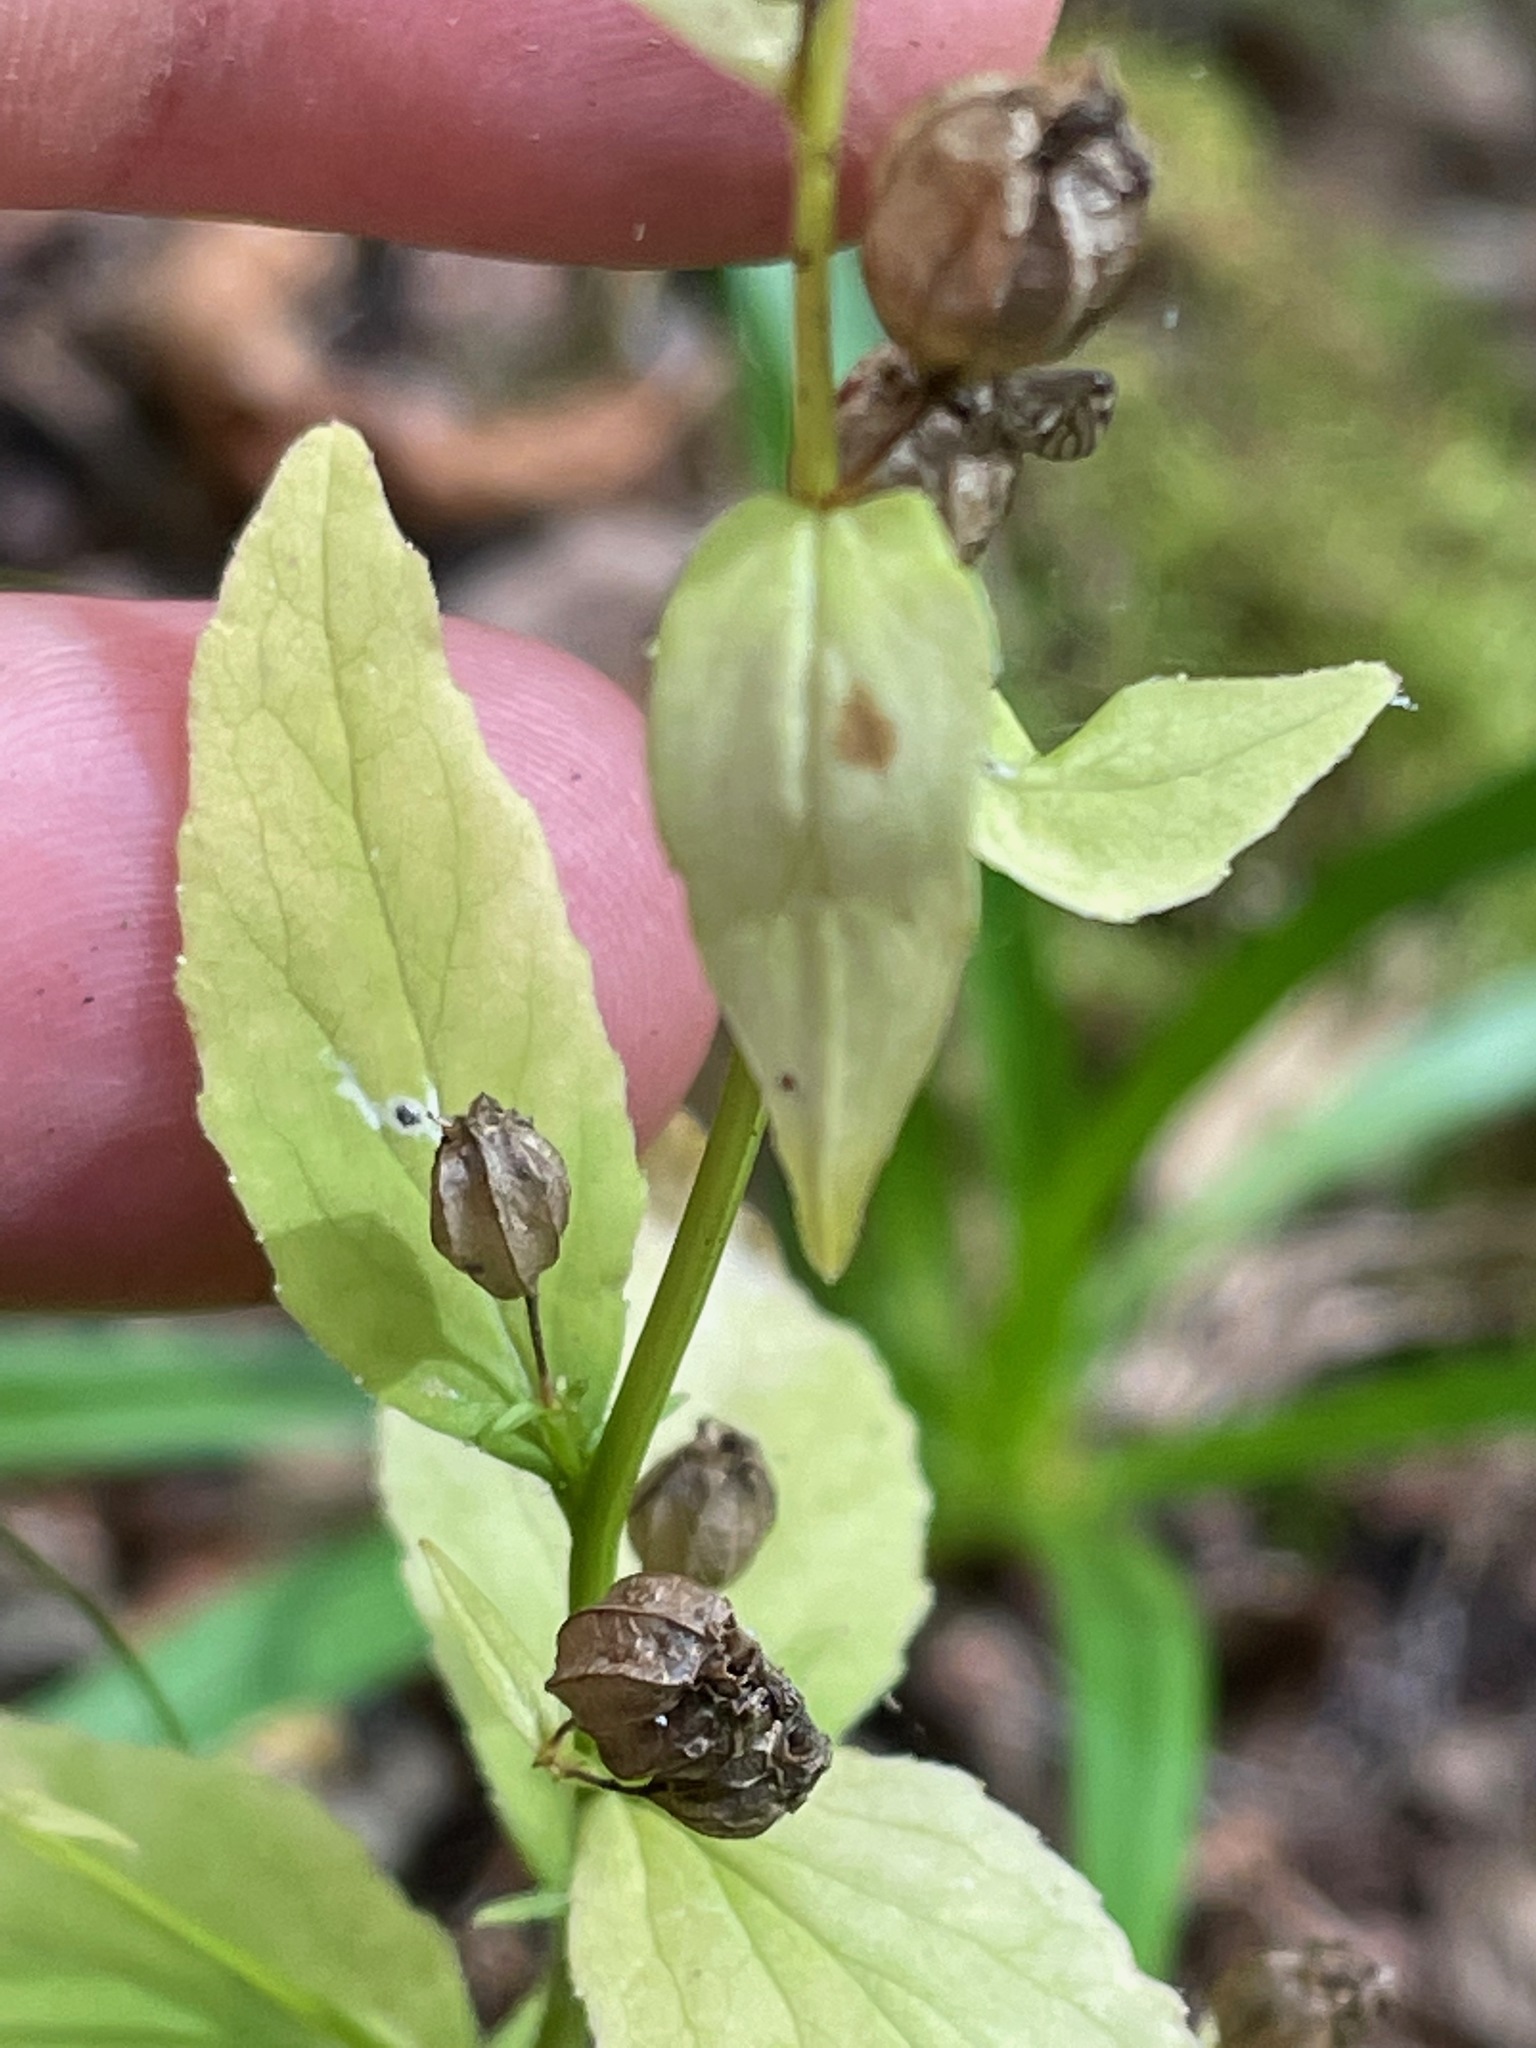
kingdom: Plantae
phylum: Tracheophyta
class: Magnoliopsida
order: Asterales
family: Campanulaceae
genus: Lobelia
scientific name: Lobelia inflata
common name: Indian tobacco
